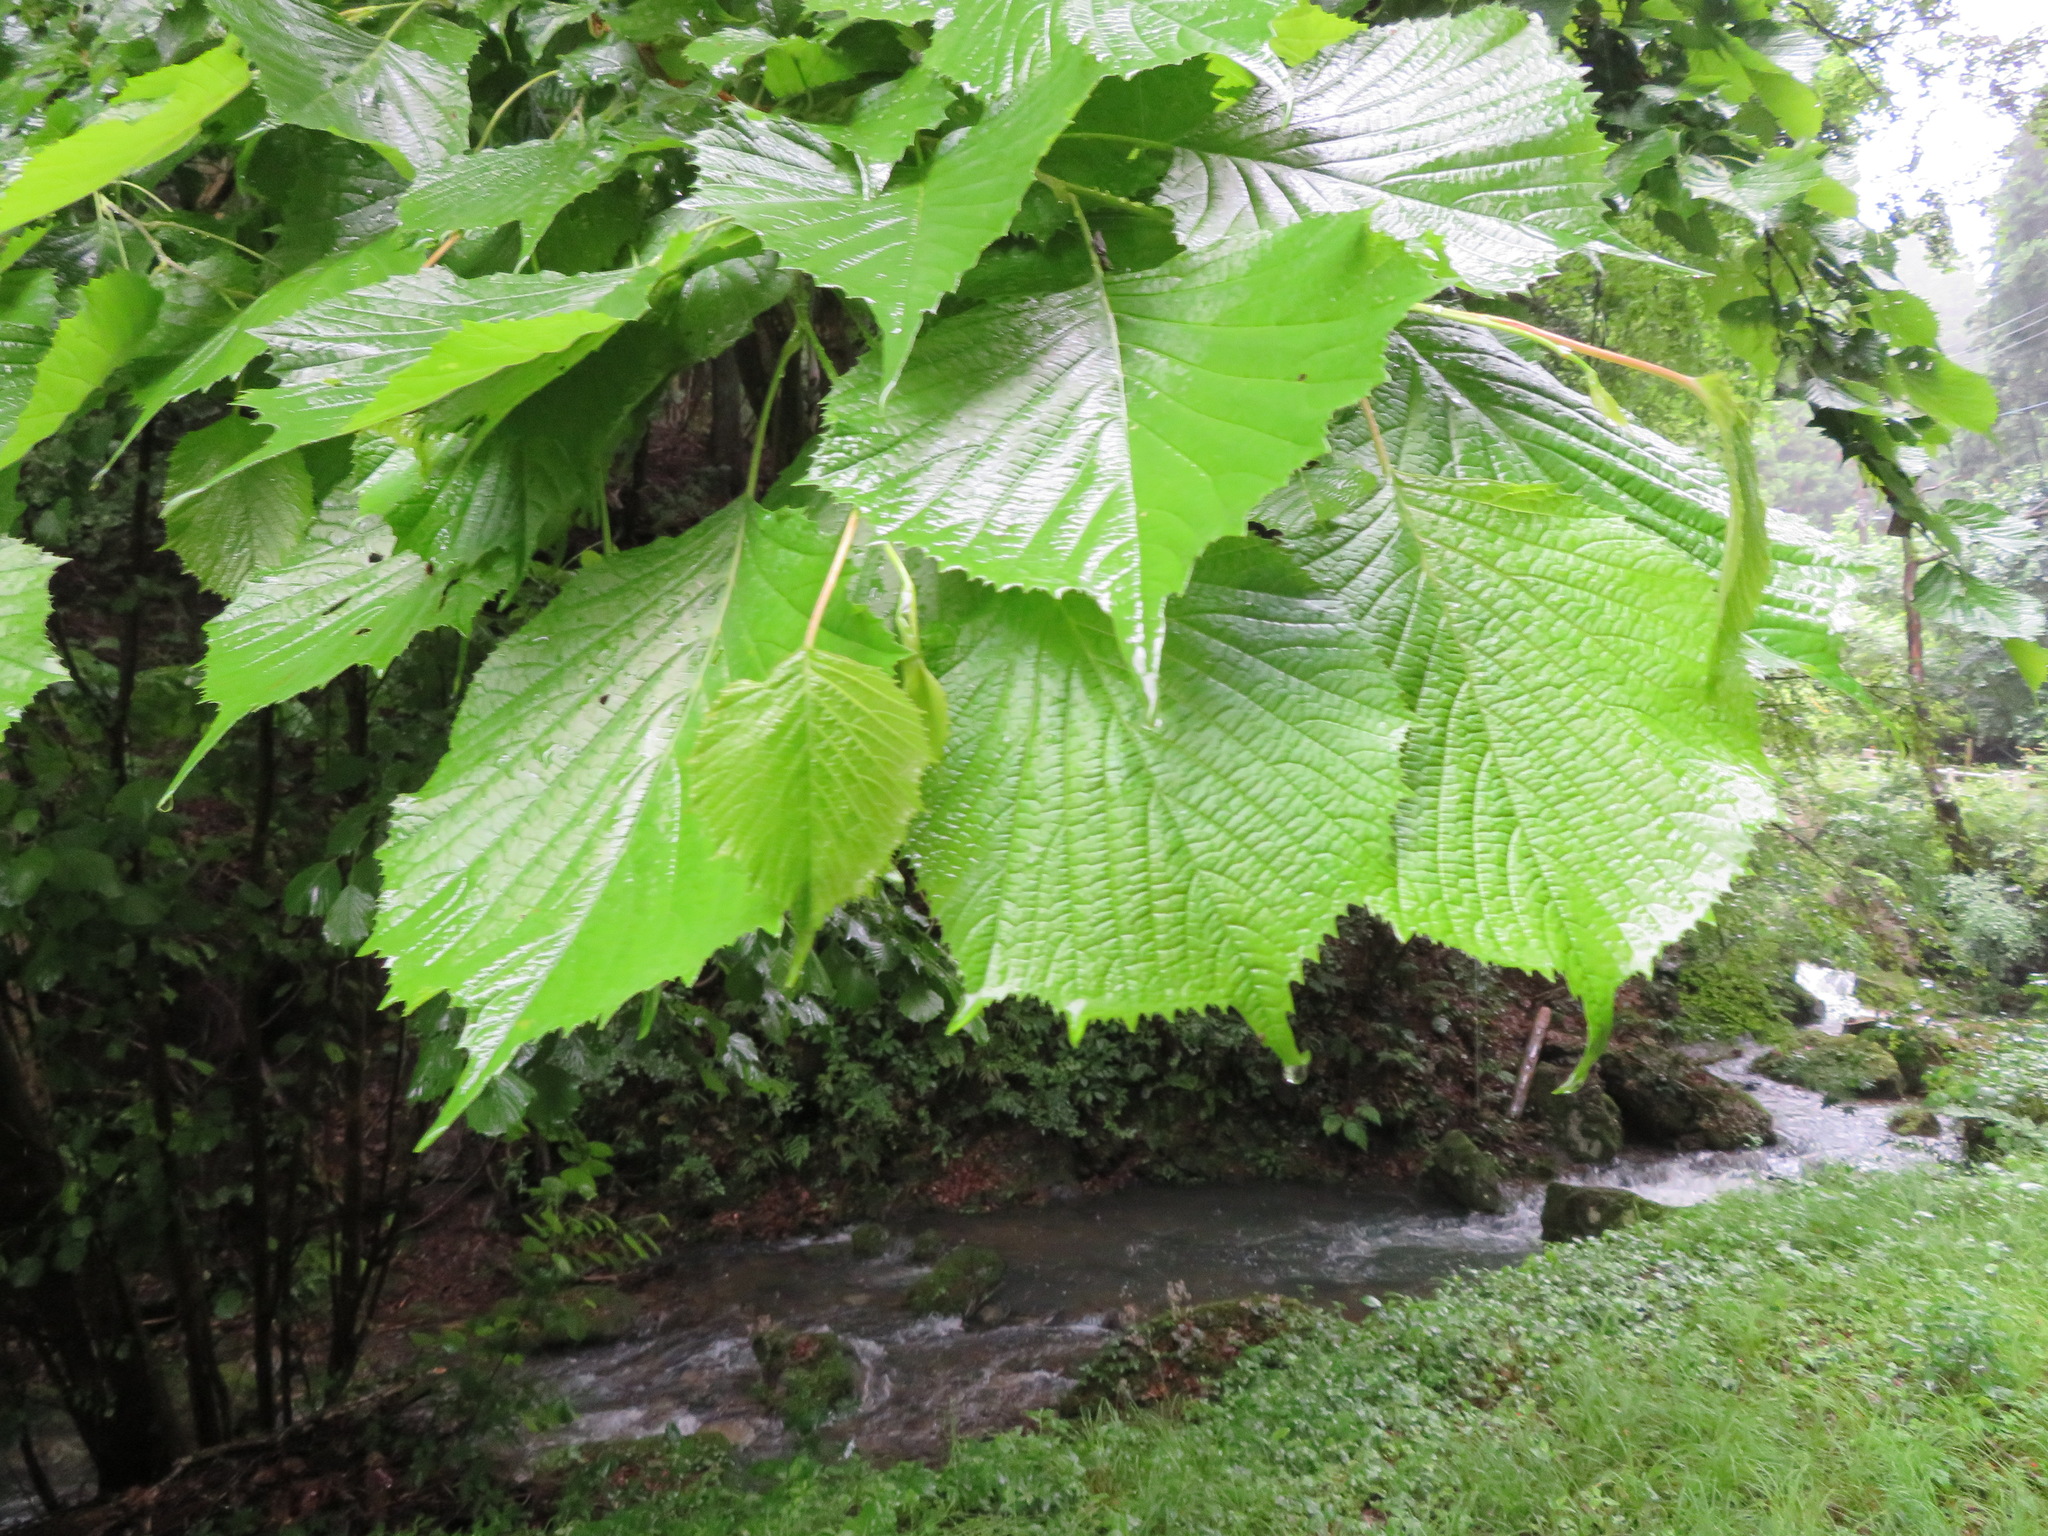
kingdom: Plantae
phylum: Tracheophyta
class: Magnoliopsida
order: Ranunculales
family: Eupteleaceae
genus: Euptelea
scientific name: Euptelea polyandra
